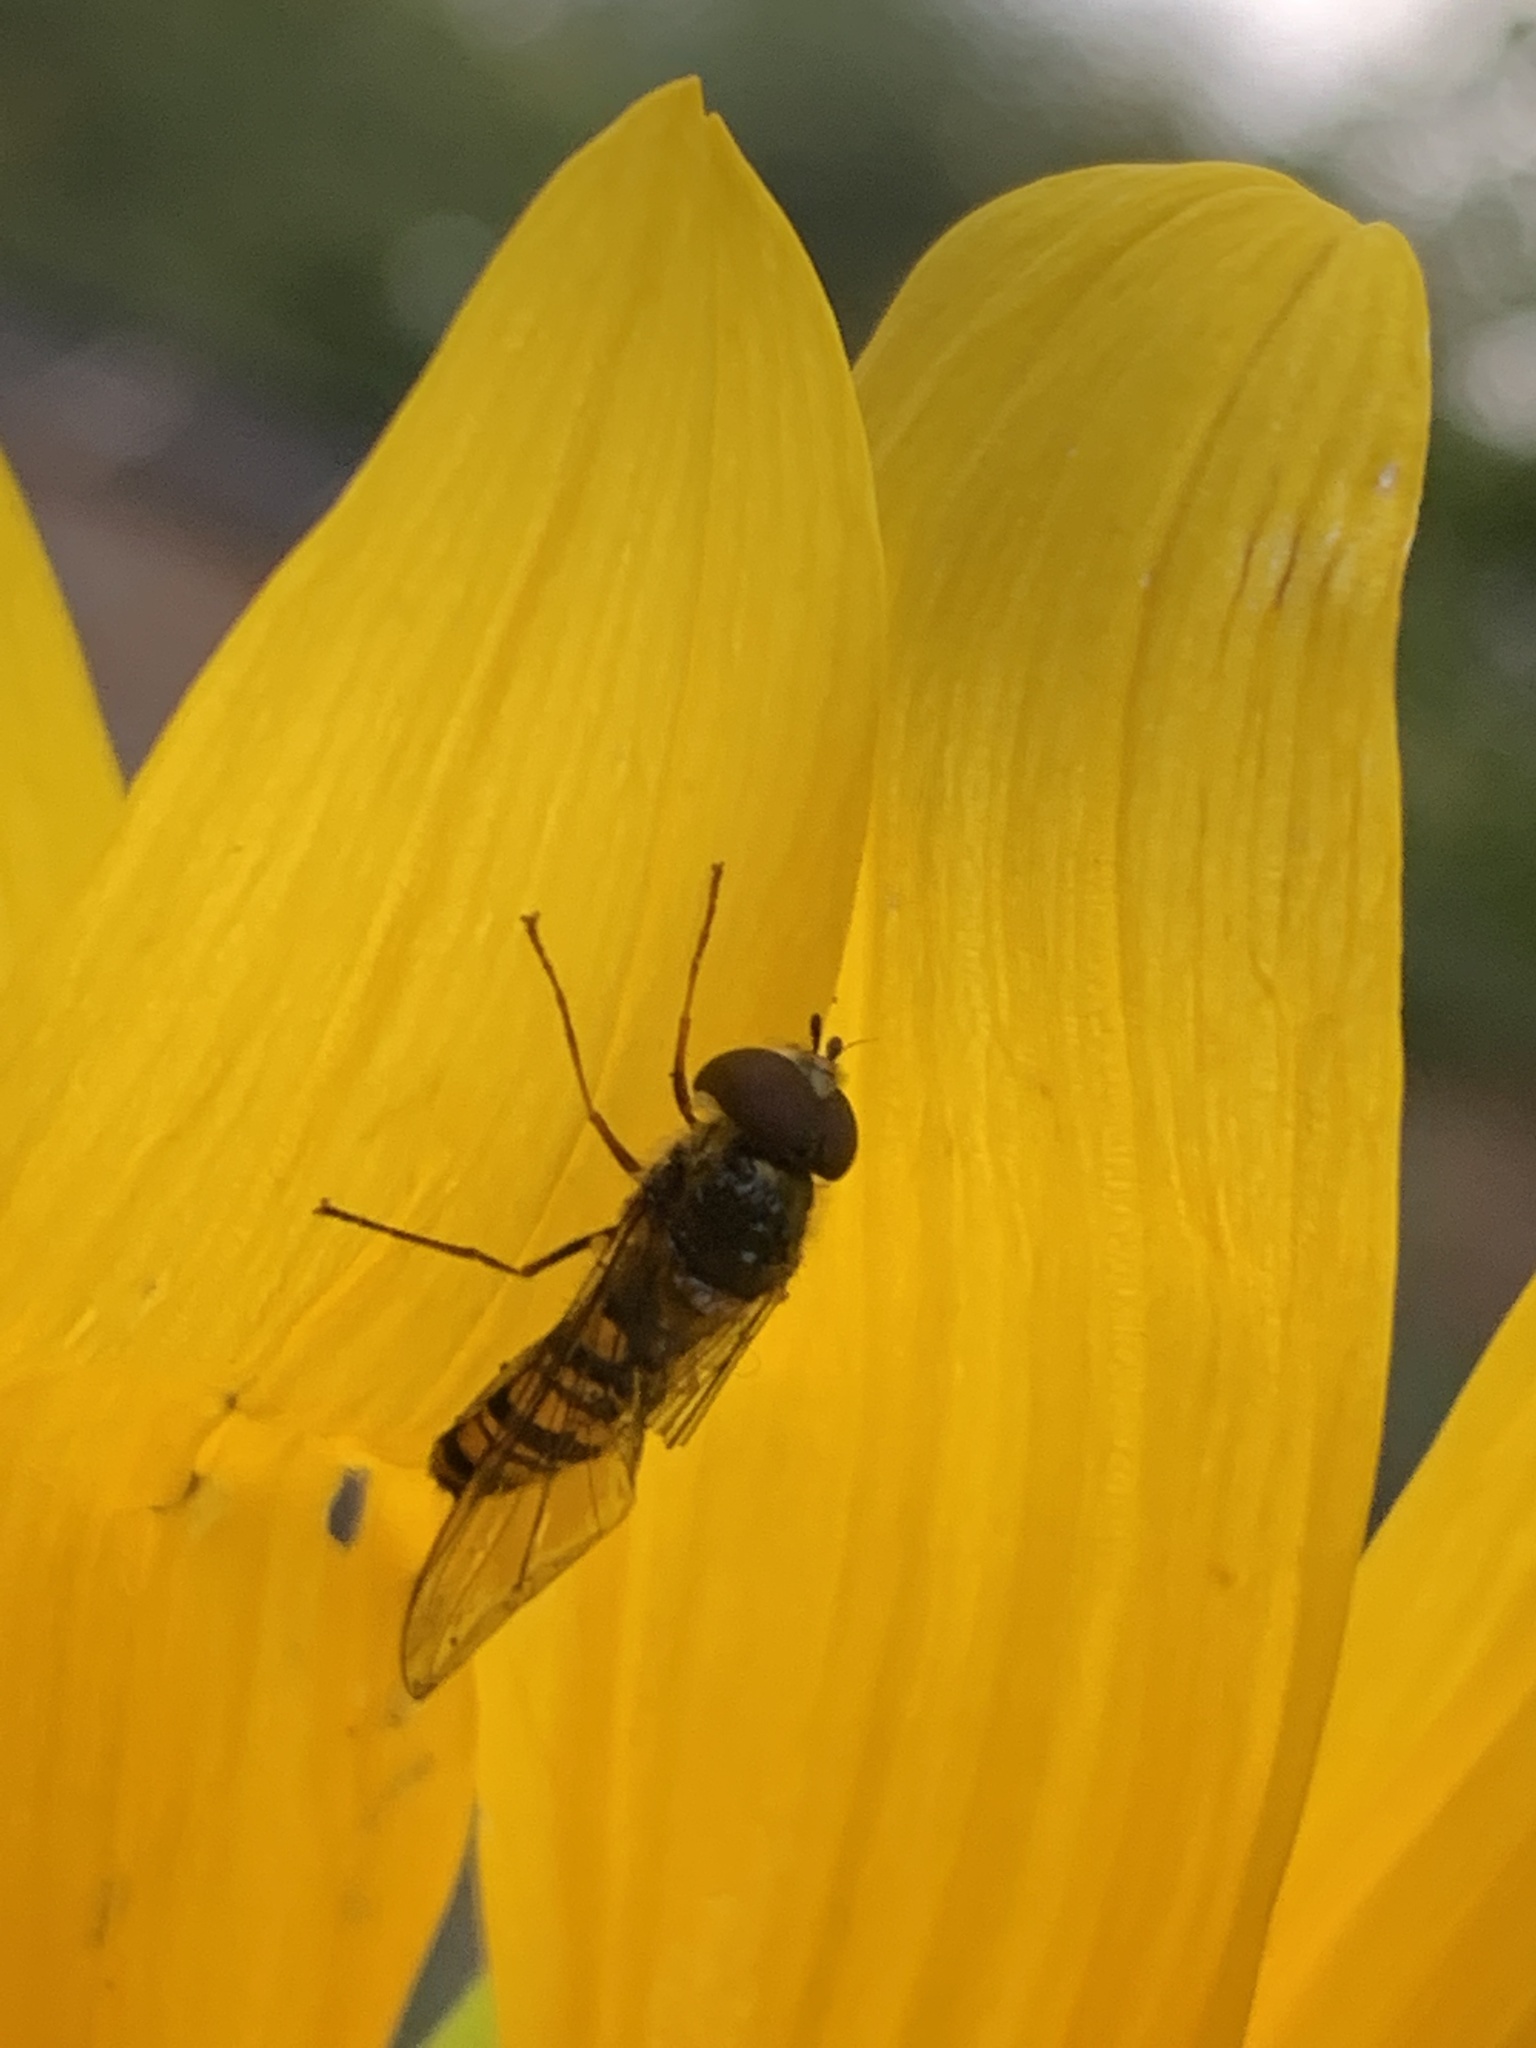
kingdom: Animalia
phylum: Arthropoda
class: Insecta
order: Diptera
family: Syrphidae
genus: Episyrphus
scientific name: Episyrphus balteatus
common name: Marmalade hoverfly
